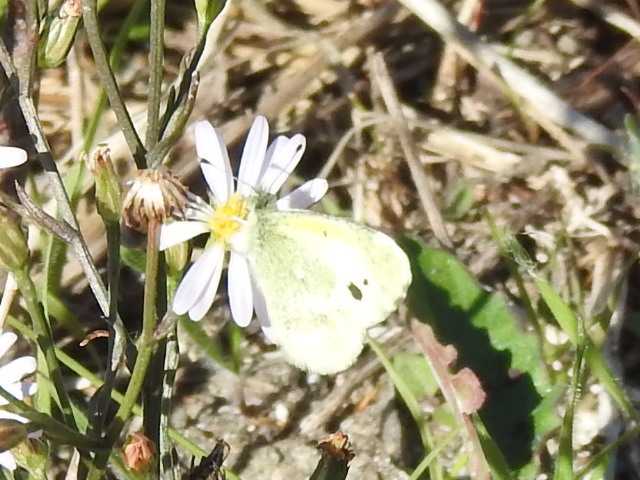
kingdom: Animalia
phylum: Arthropoda
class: Insecta
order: Lepidoptera
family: Pieridae
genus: Nathalis
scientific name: Nathalis iole
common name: Dainty sulphur
